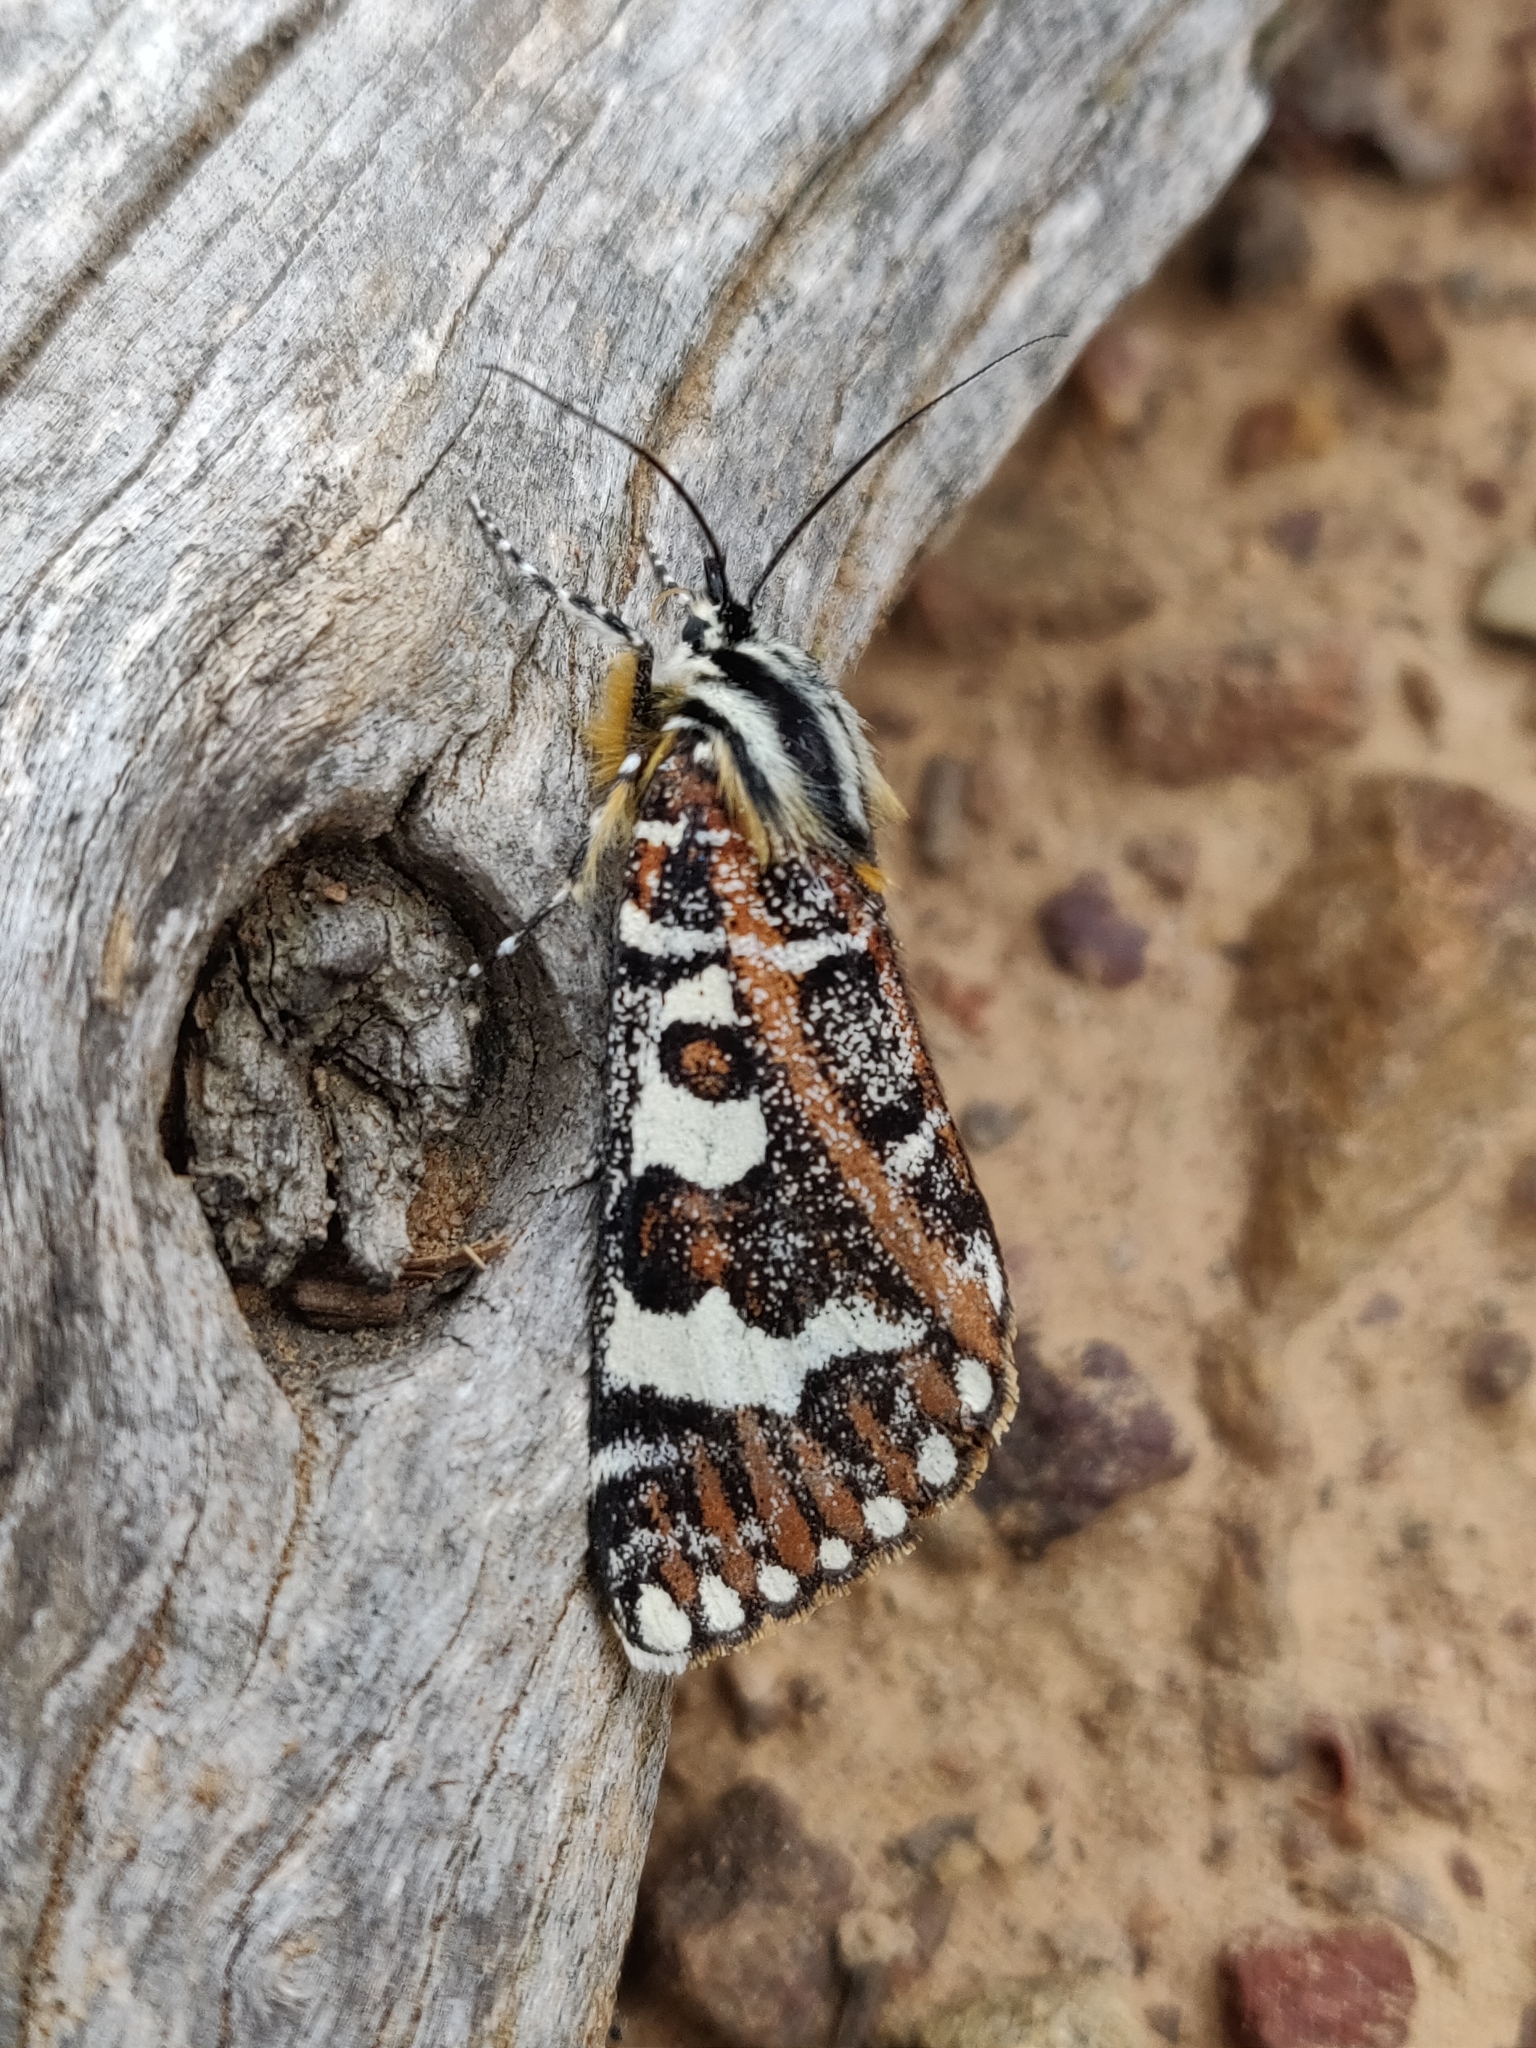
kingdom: Animalia
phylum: Arthropoda
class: Insecta
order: Lepidoptera
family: Noctuidae
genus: Apina
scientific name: Apina callisto
